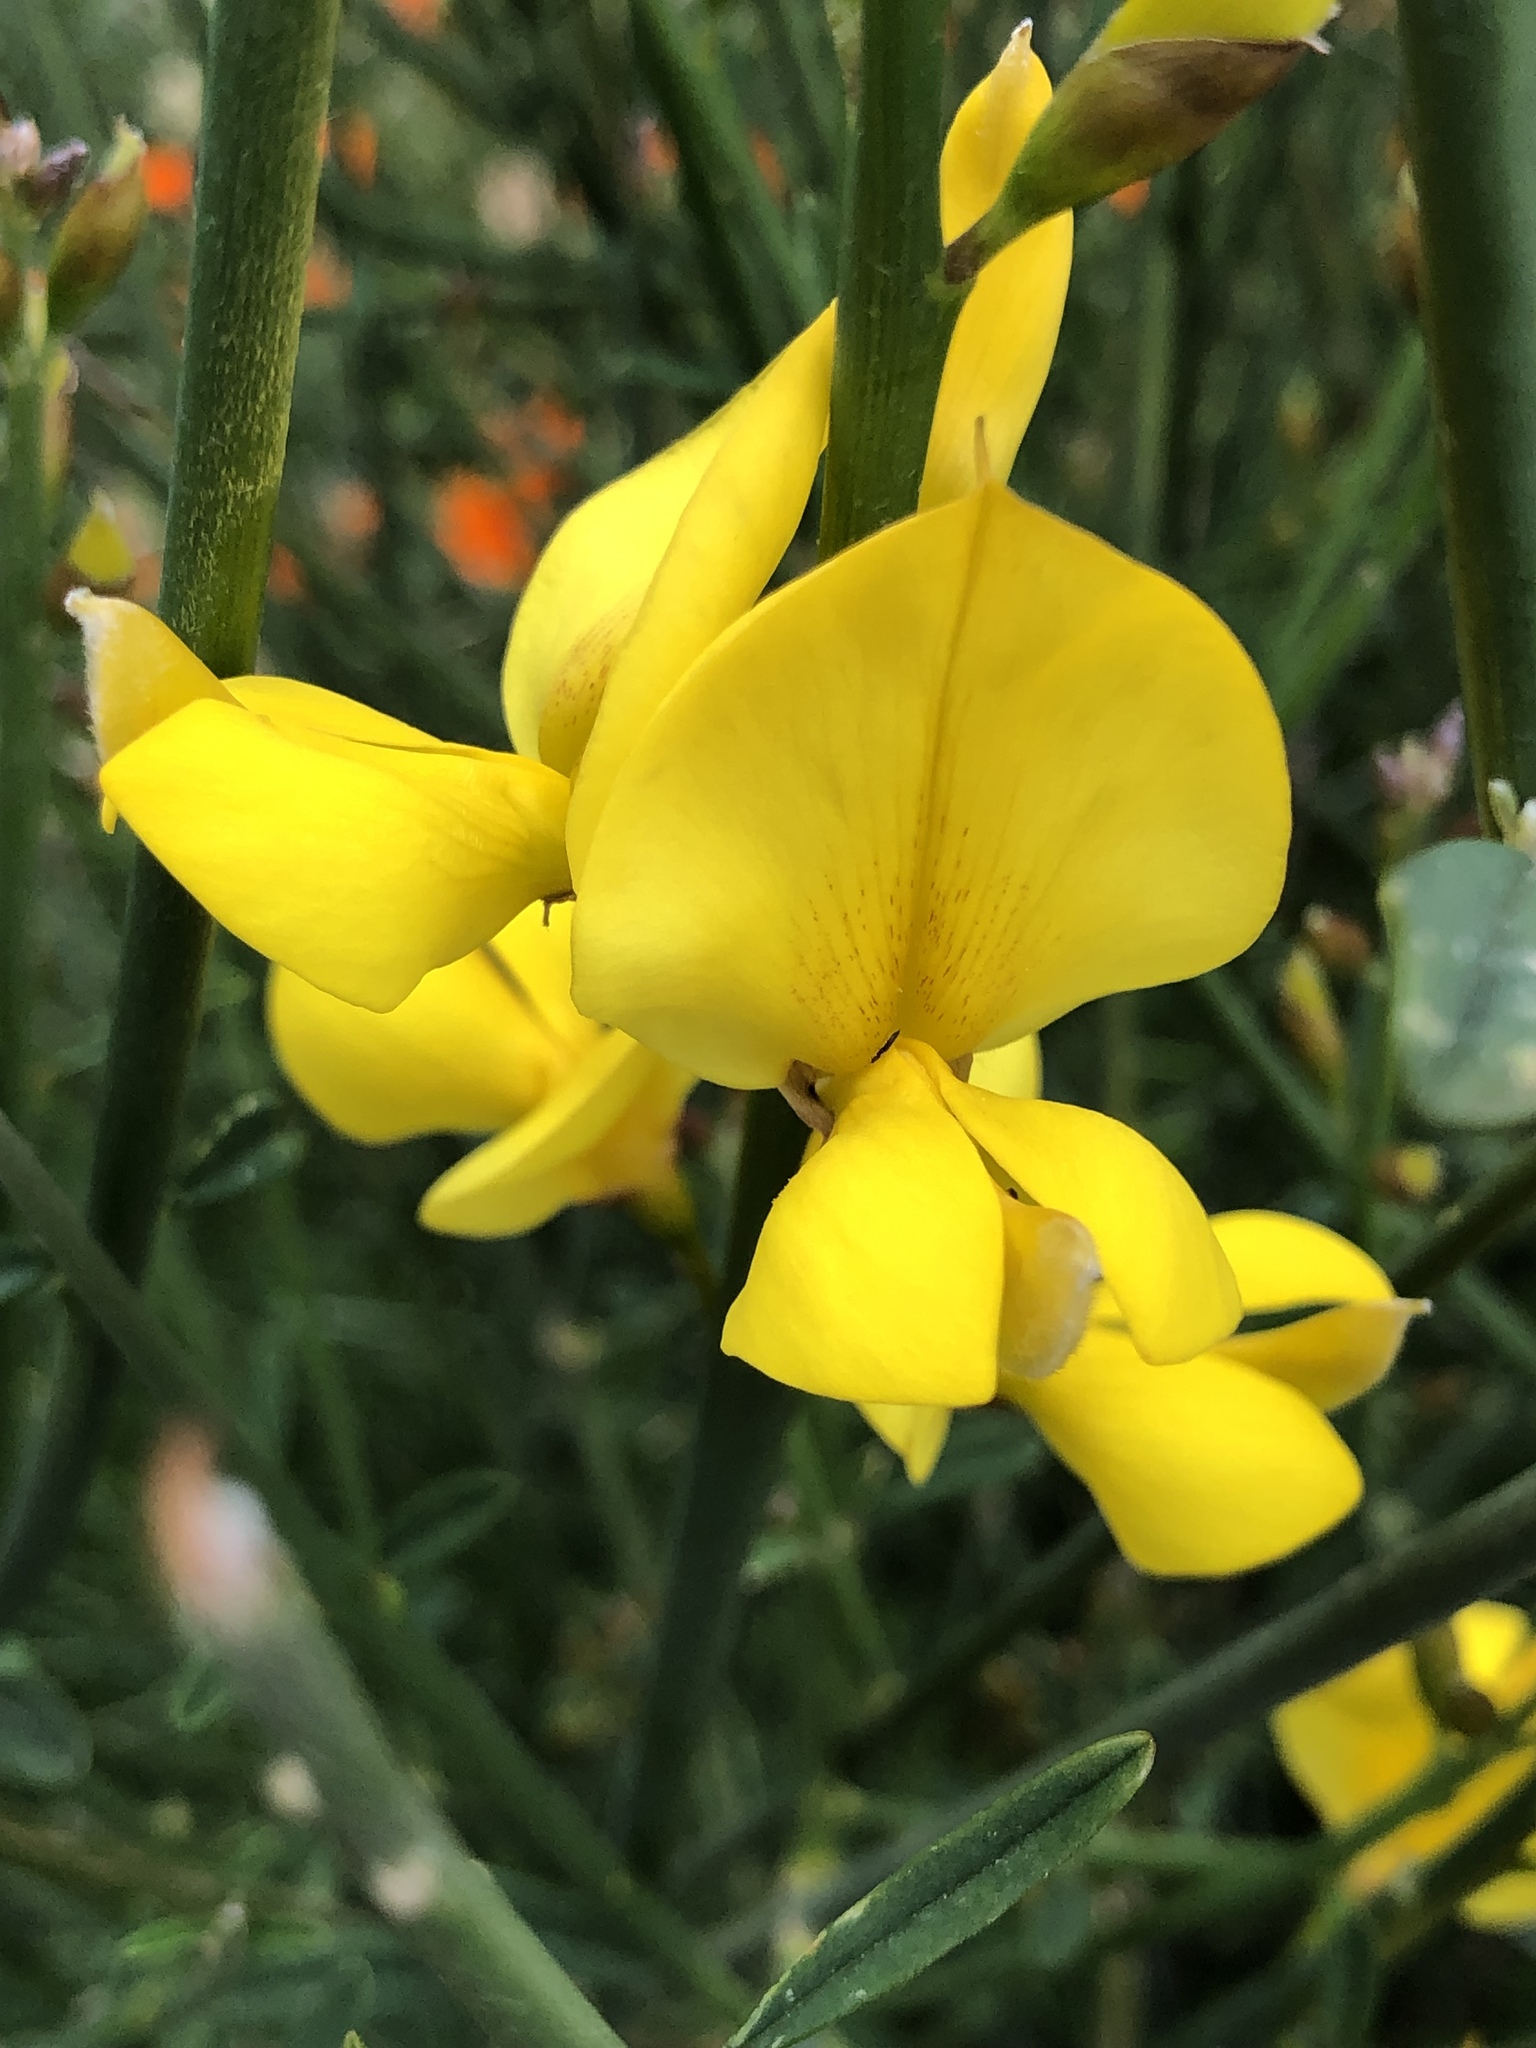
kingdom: Plantae
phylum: Tracheophyta
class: Magnoliopsida
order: Fabales
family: Fabaceae
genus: Spartium
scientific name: Spartium junceum
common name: Spanish broom
